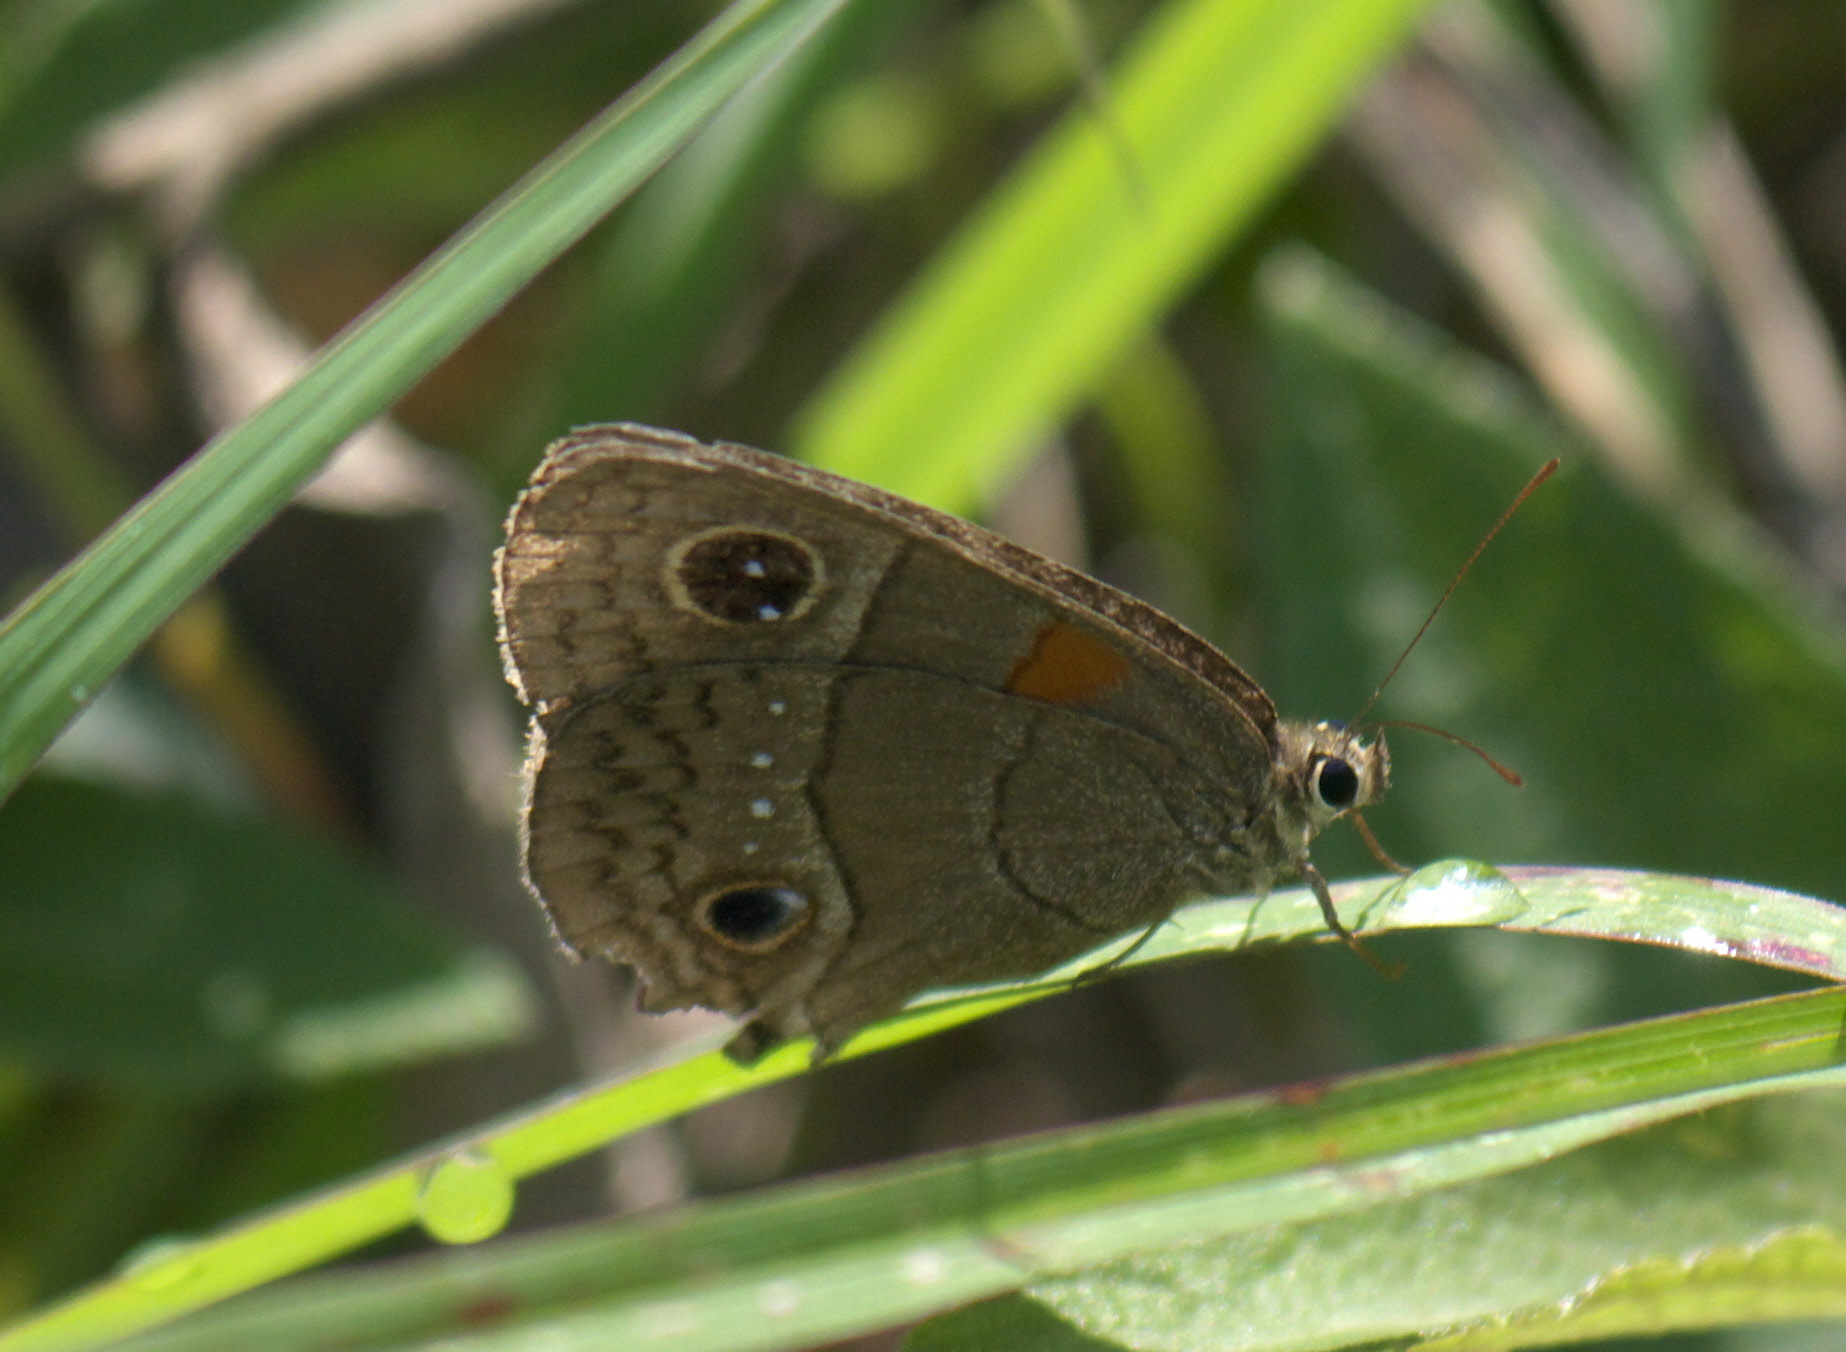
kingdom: Animalia
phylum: Arthropoda
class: Insecta
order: Lepidoptera
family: Nymphalidae
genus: Calisto
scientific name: Calisto herophile
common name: Cuban calisto
